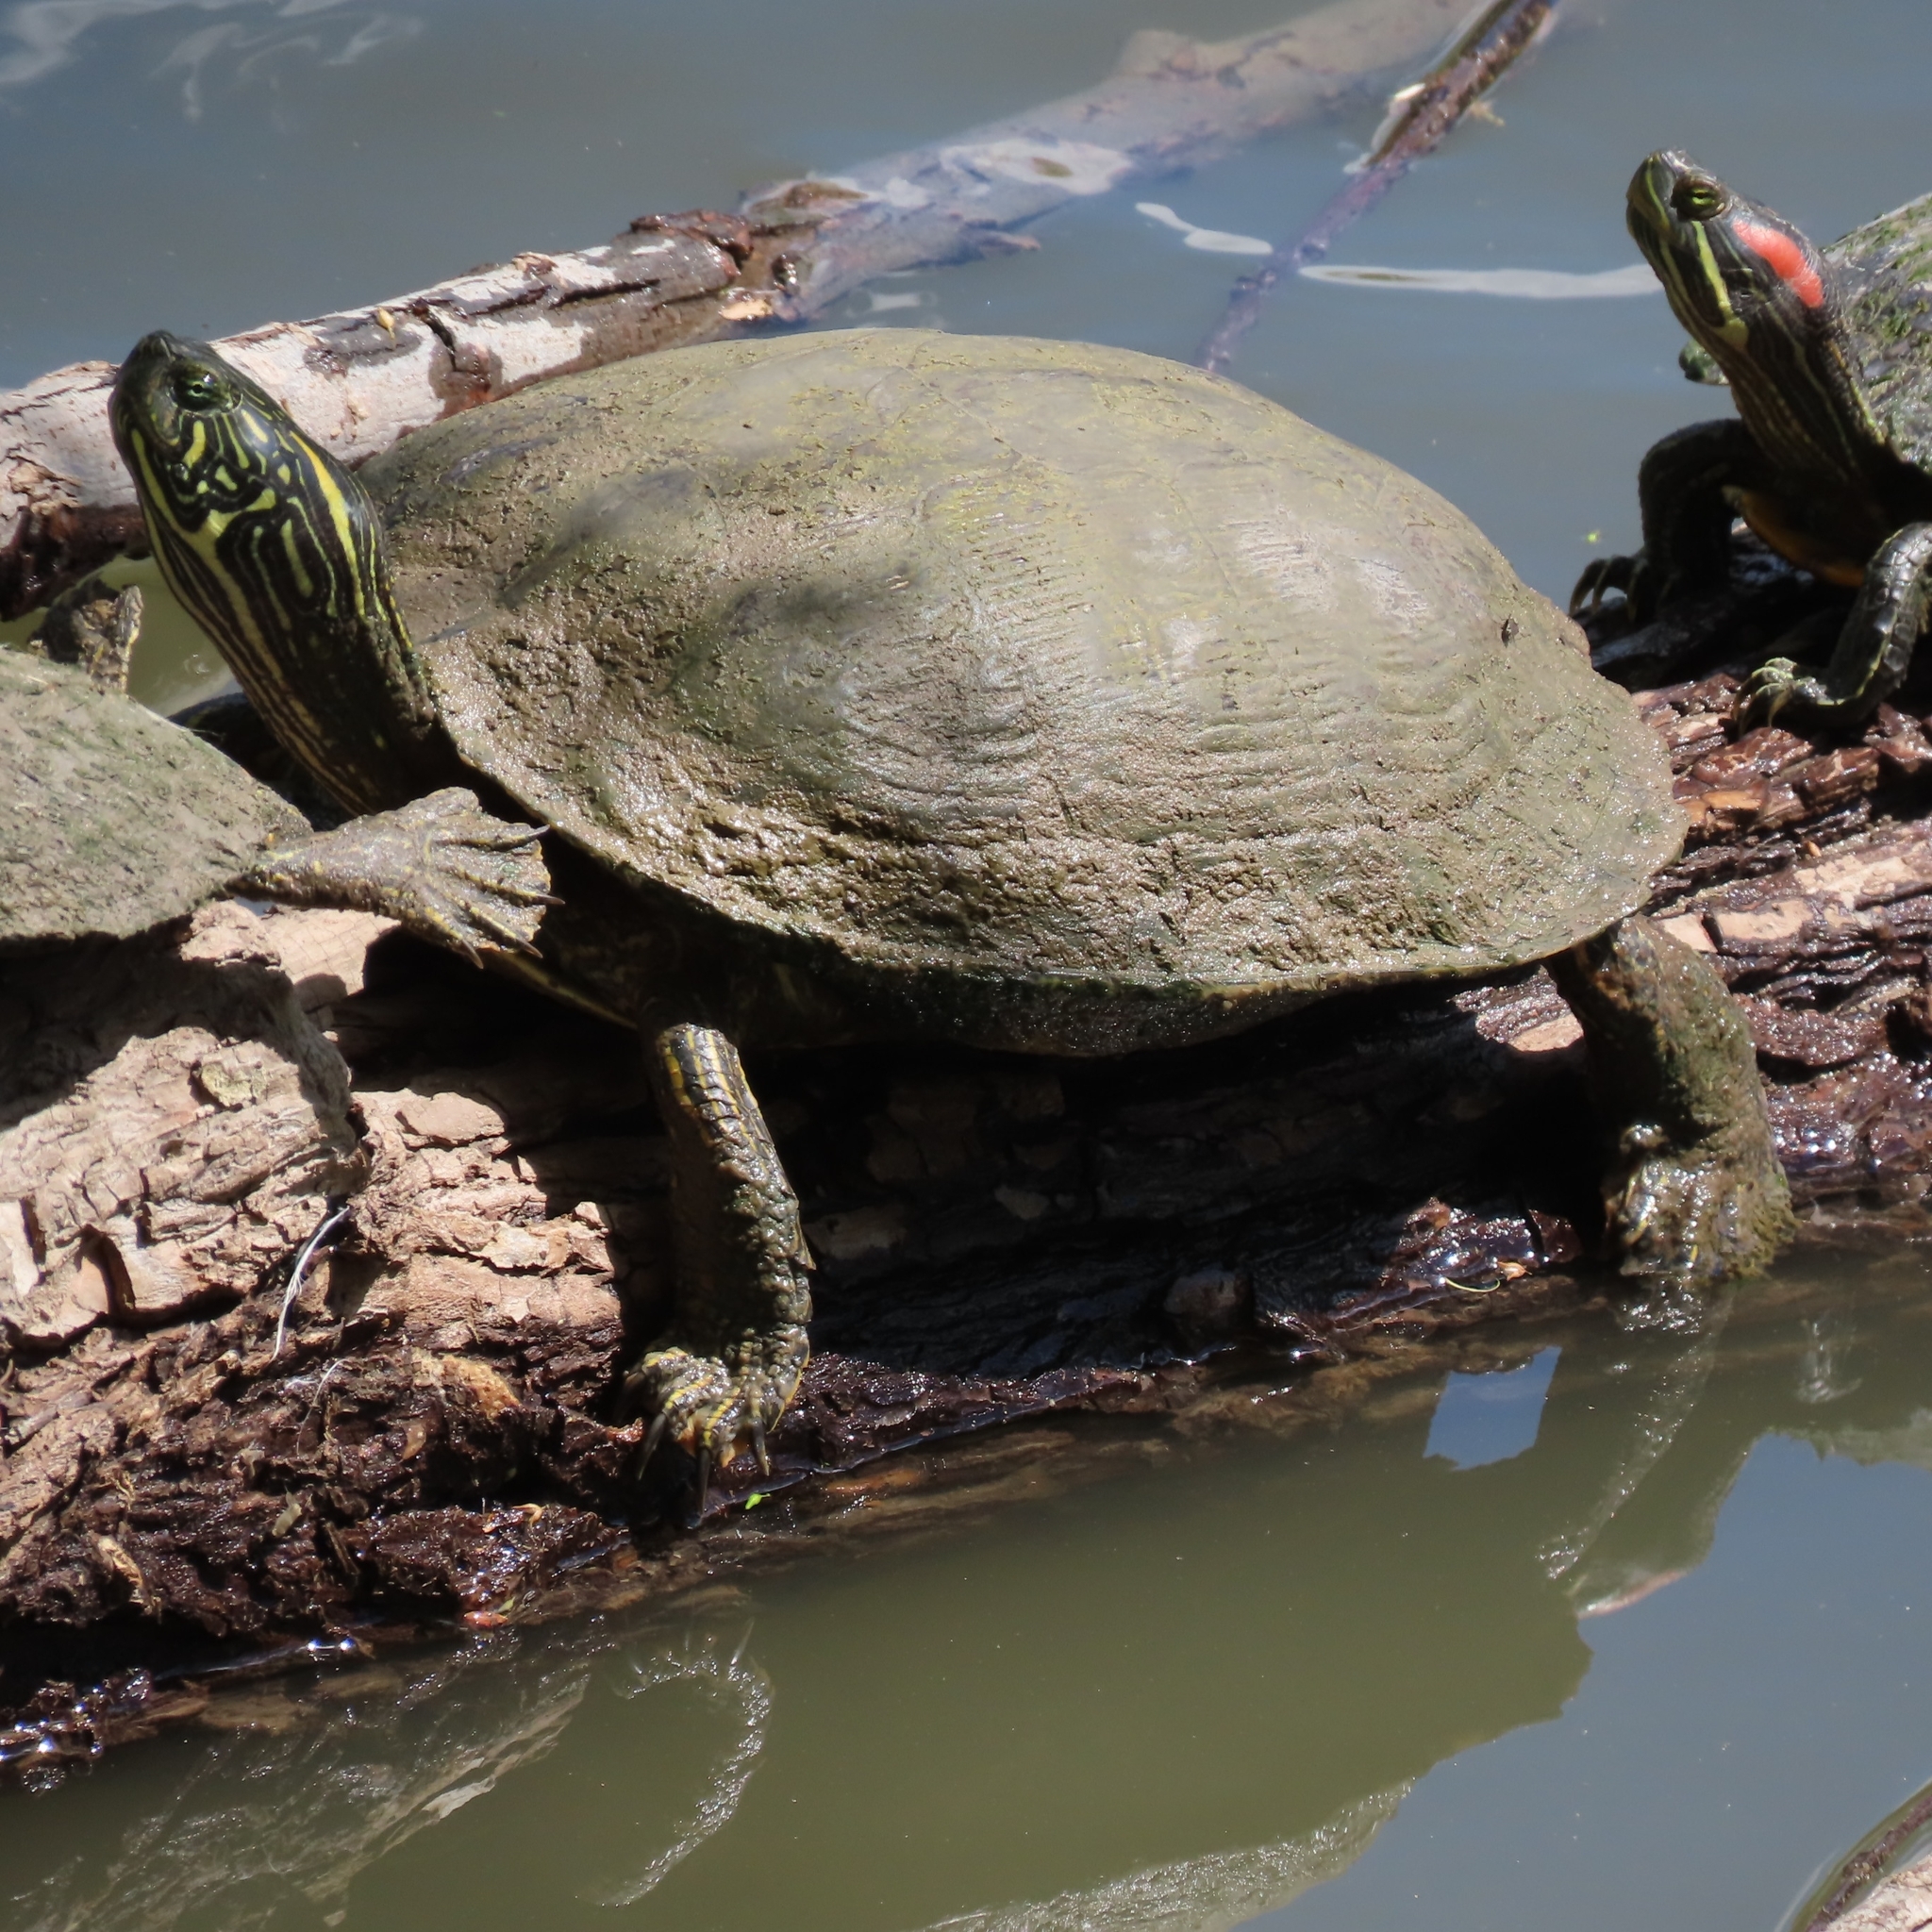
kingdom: Animalia
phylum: Chordata
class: Testudines
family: Emydidae
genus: Pseudemys
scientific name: Pseudemys texana
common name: Texas river cooter
